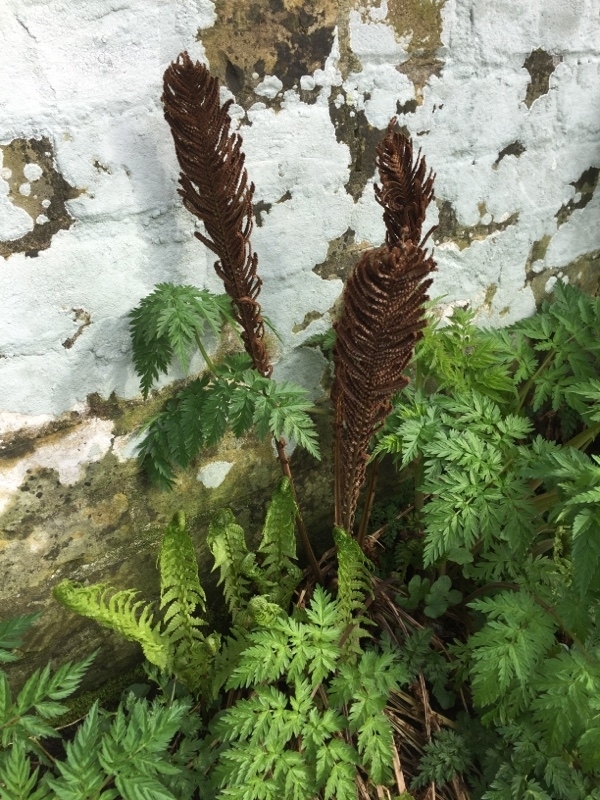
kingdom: Plantae
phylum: Tracheophyta
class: Polypodiopsida
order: Polypodiales
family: Onocleaceae
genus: Matteuccia
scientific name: Matteuccia struthiopteris
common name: Ostrich fern
